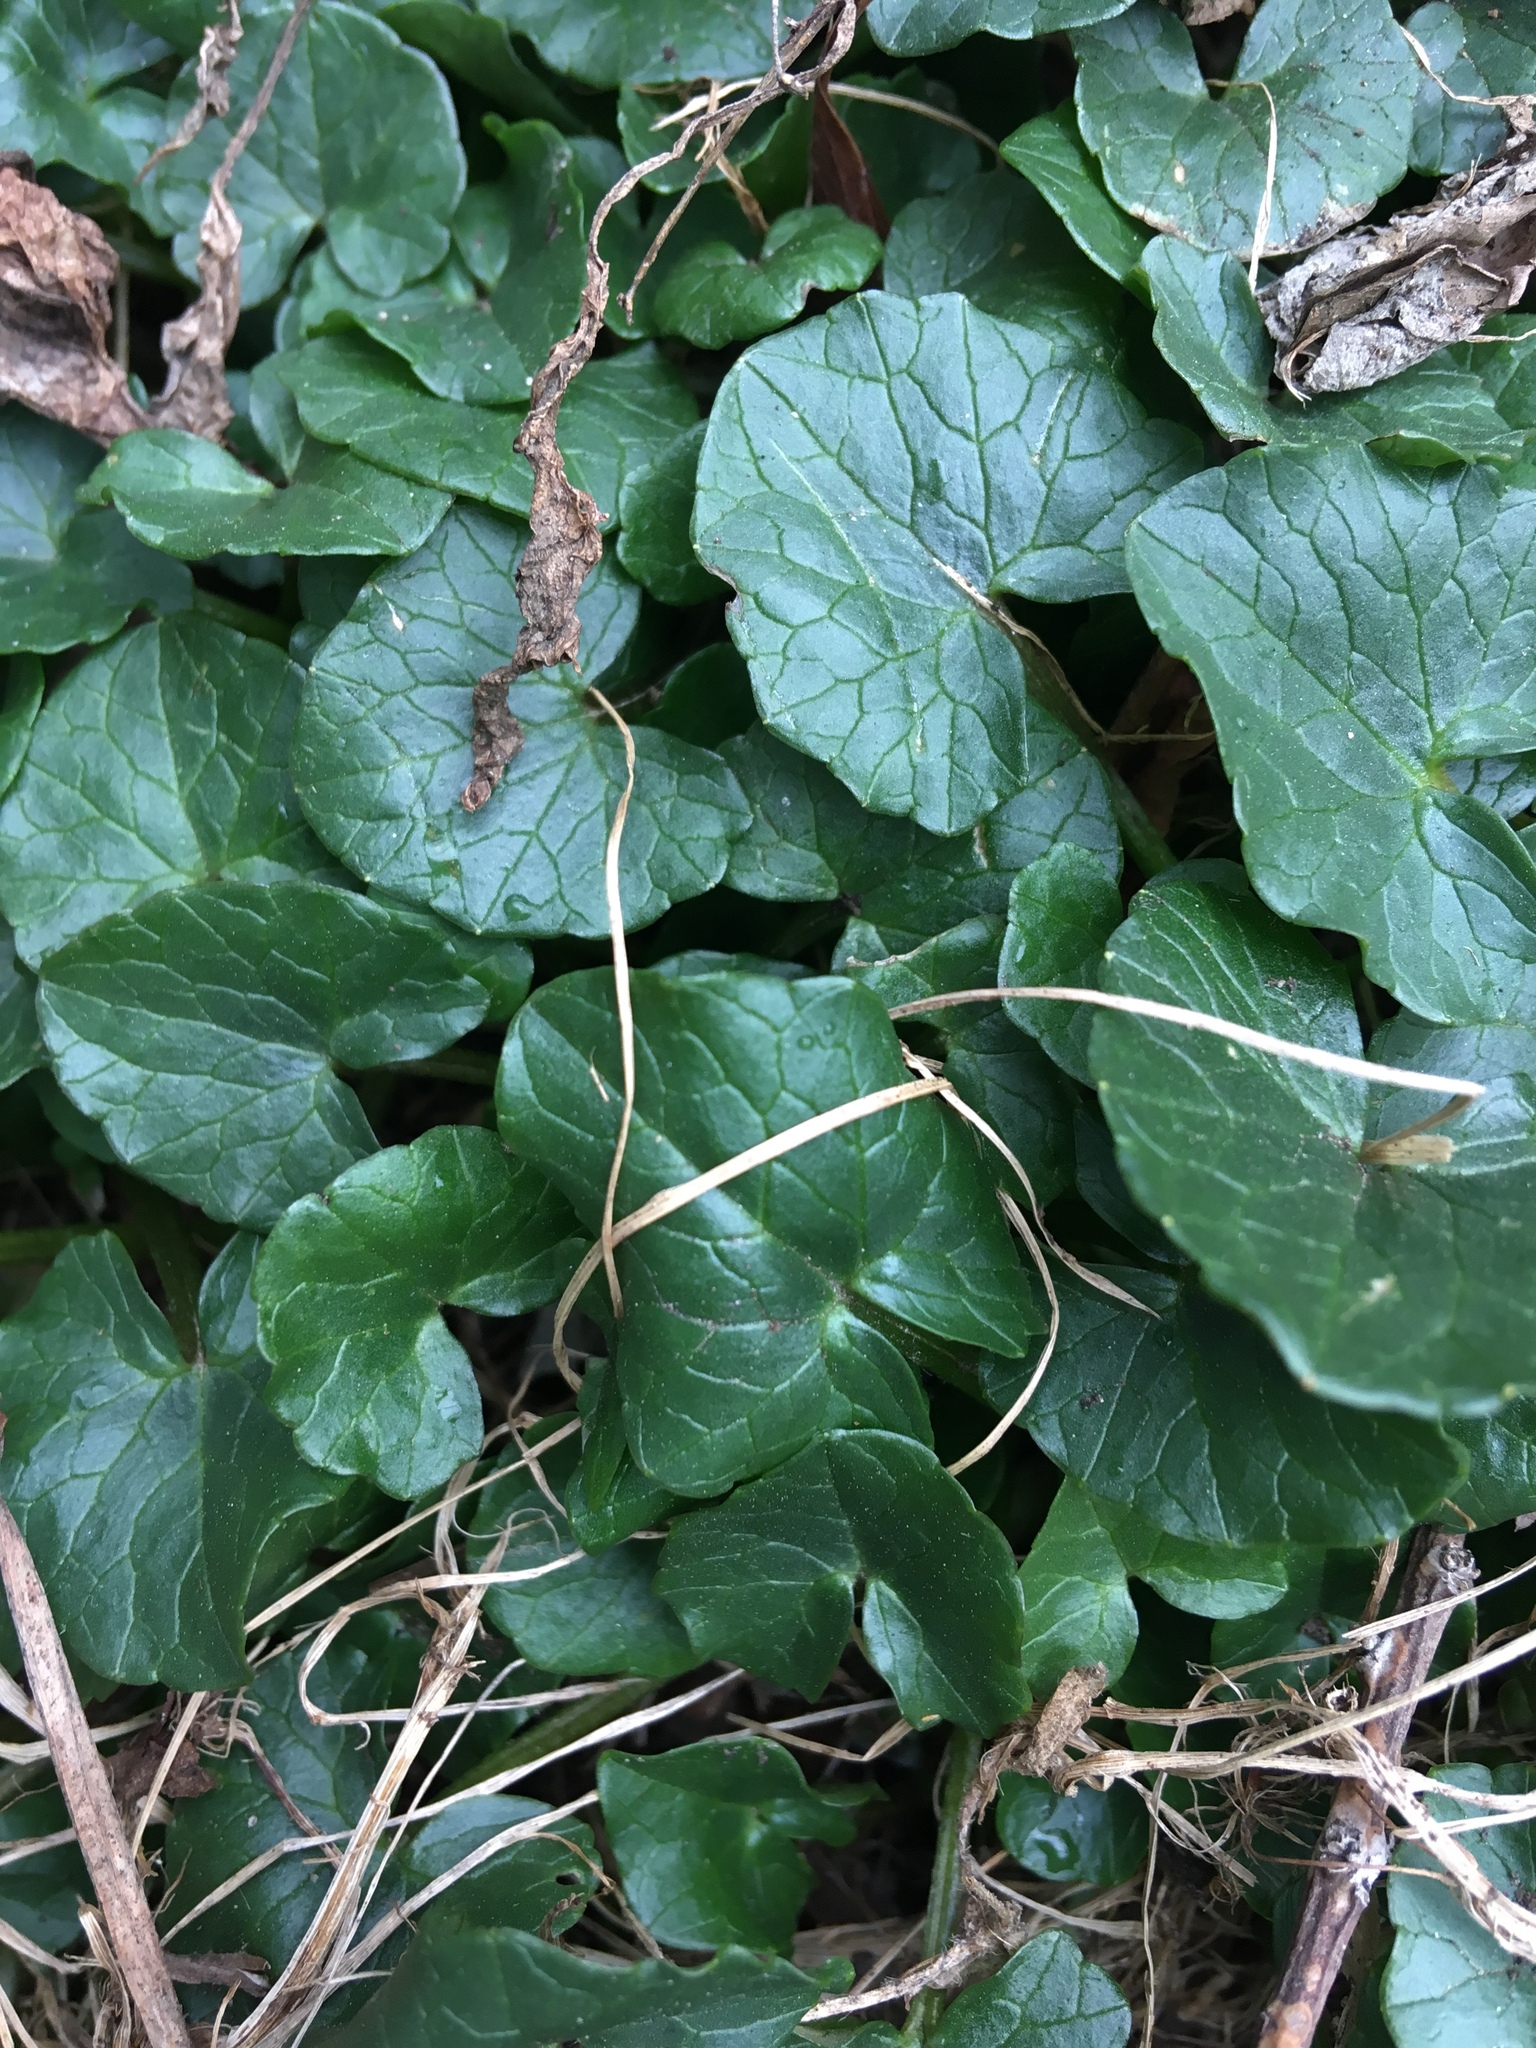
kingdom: Plantae
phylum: Tracheophyta
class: Magnoliopsida
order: Ranunculales
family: Ranunculaceae
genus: Ficaria
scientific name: Ficaria verna
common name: Lesser celandine
